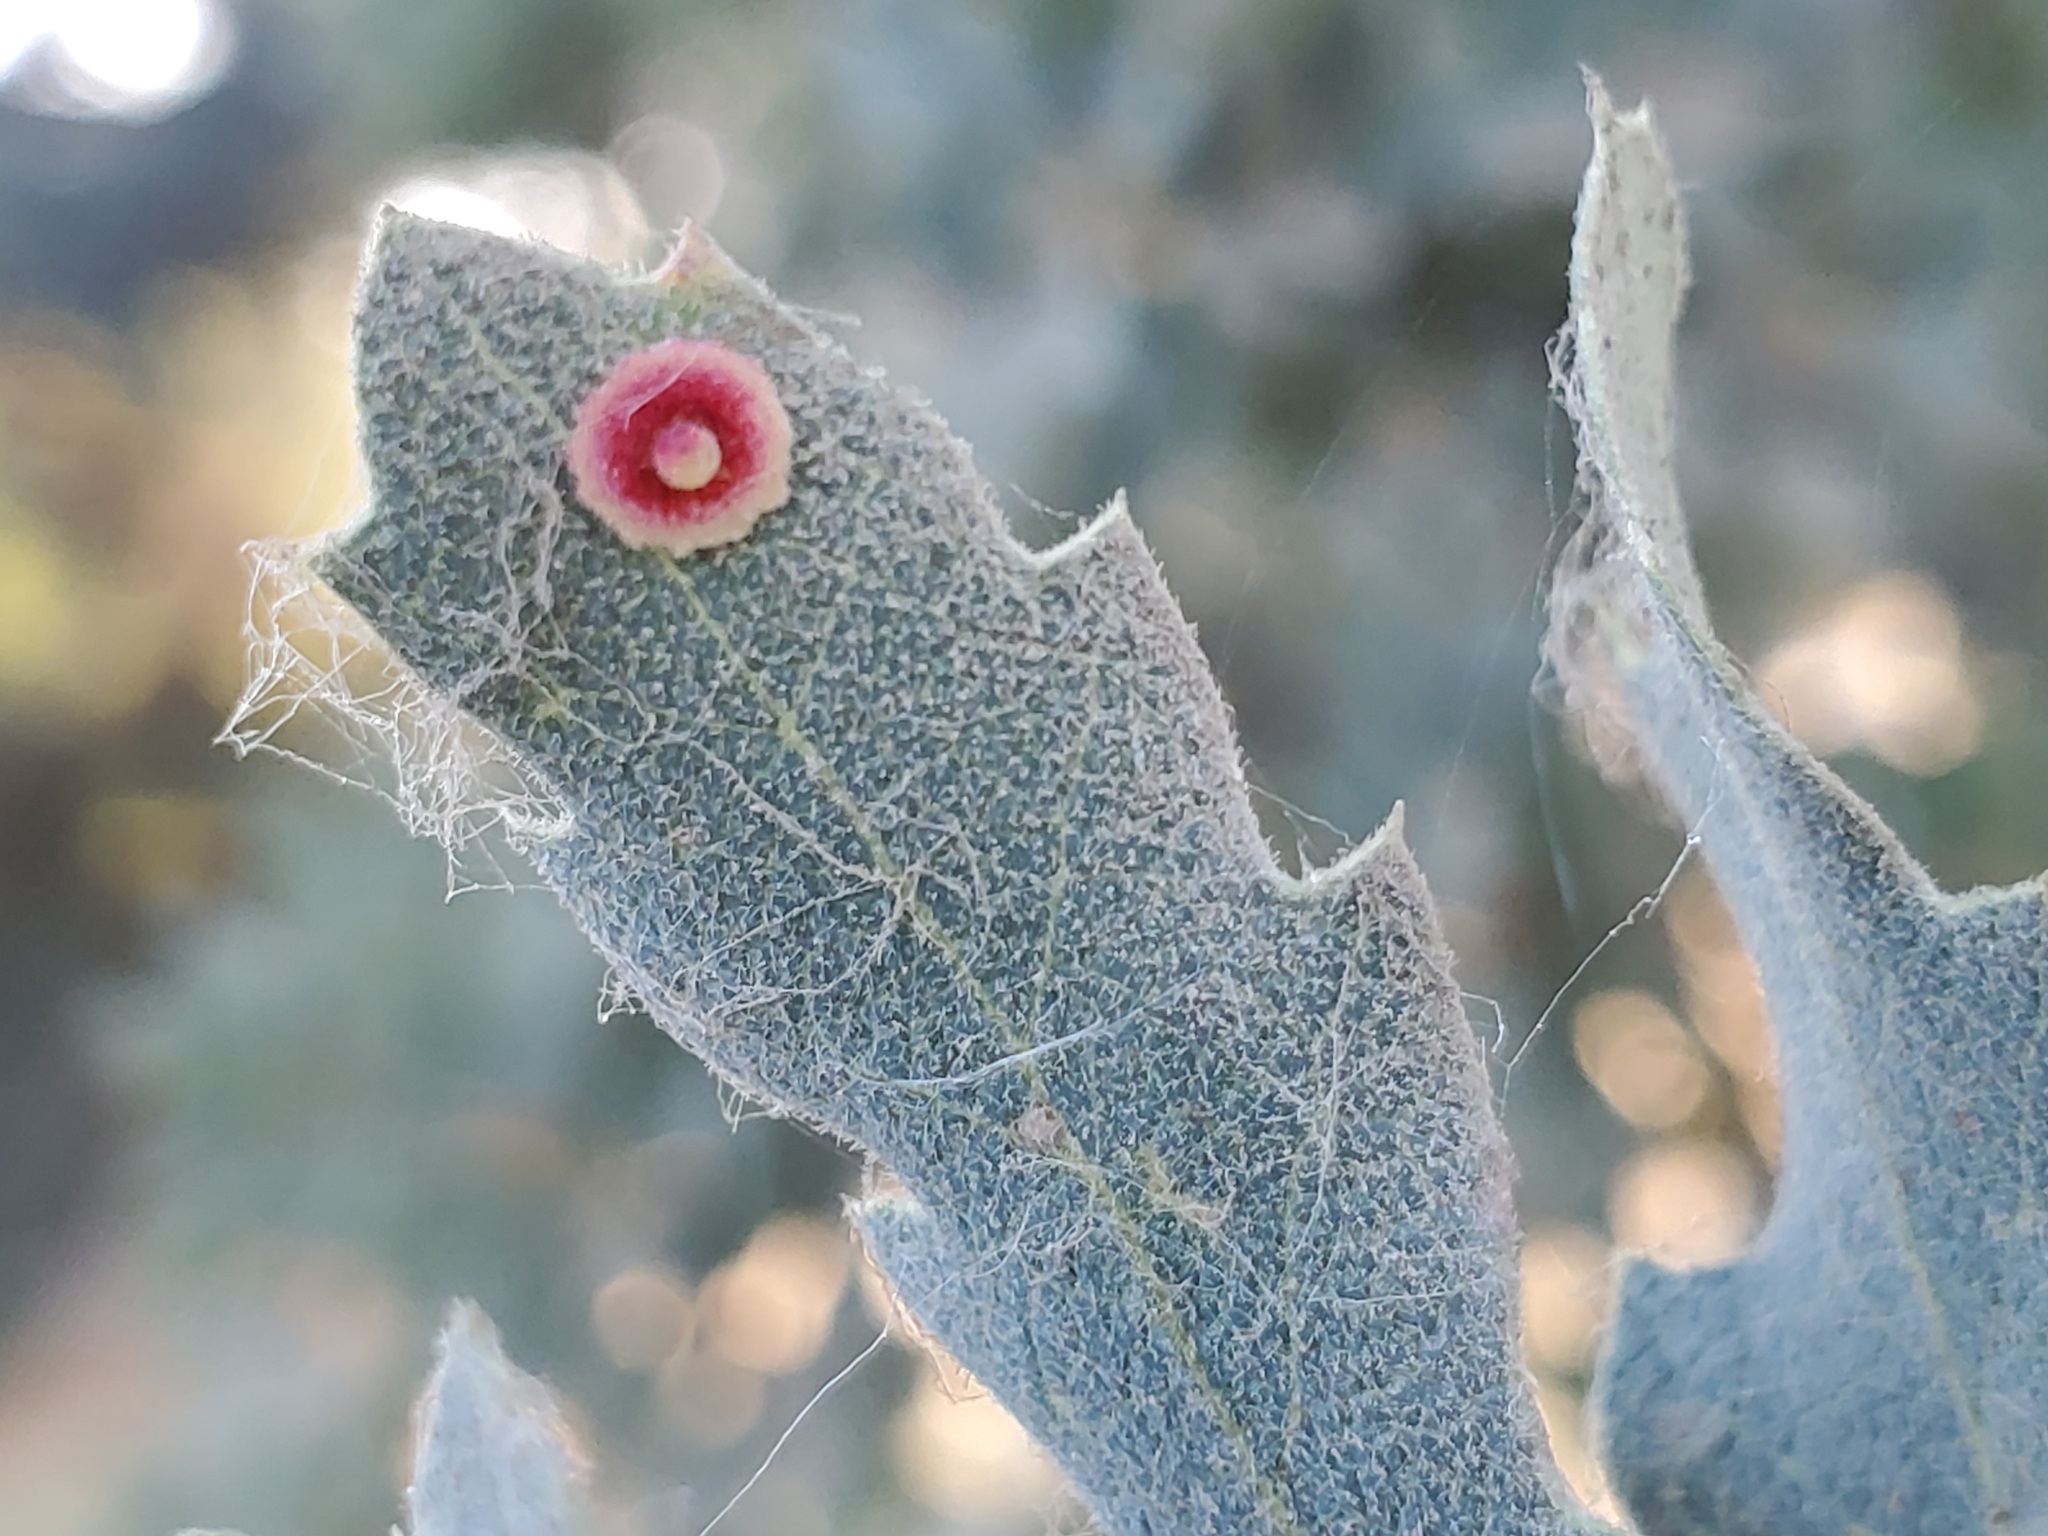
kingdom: Animalia
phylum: Arthropoda
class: Insecta
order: Hymenoptera
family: Cynipidae
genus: Andricus
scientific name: Andricus
